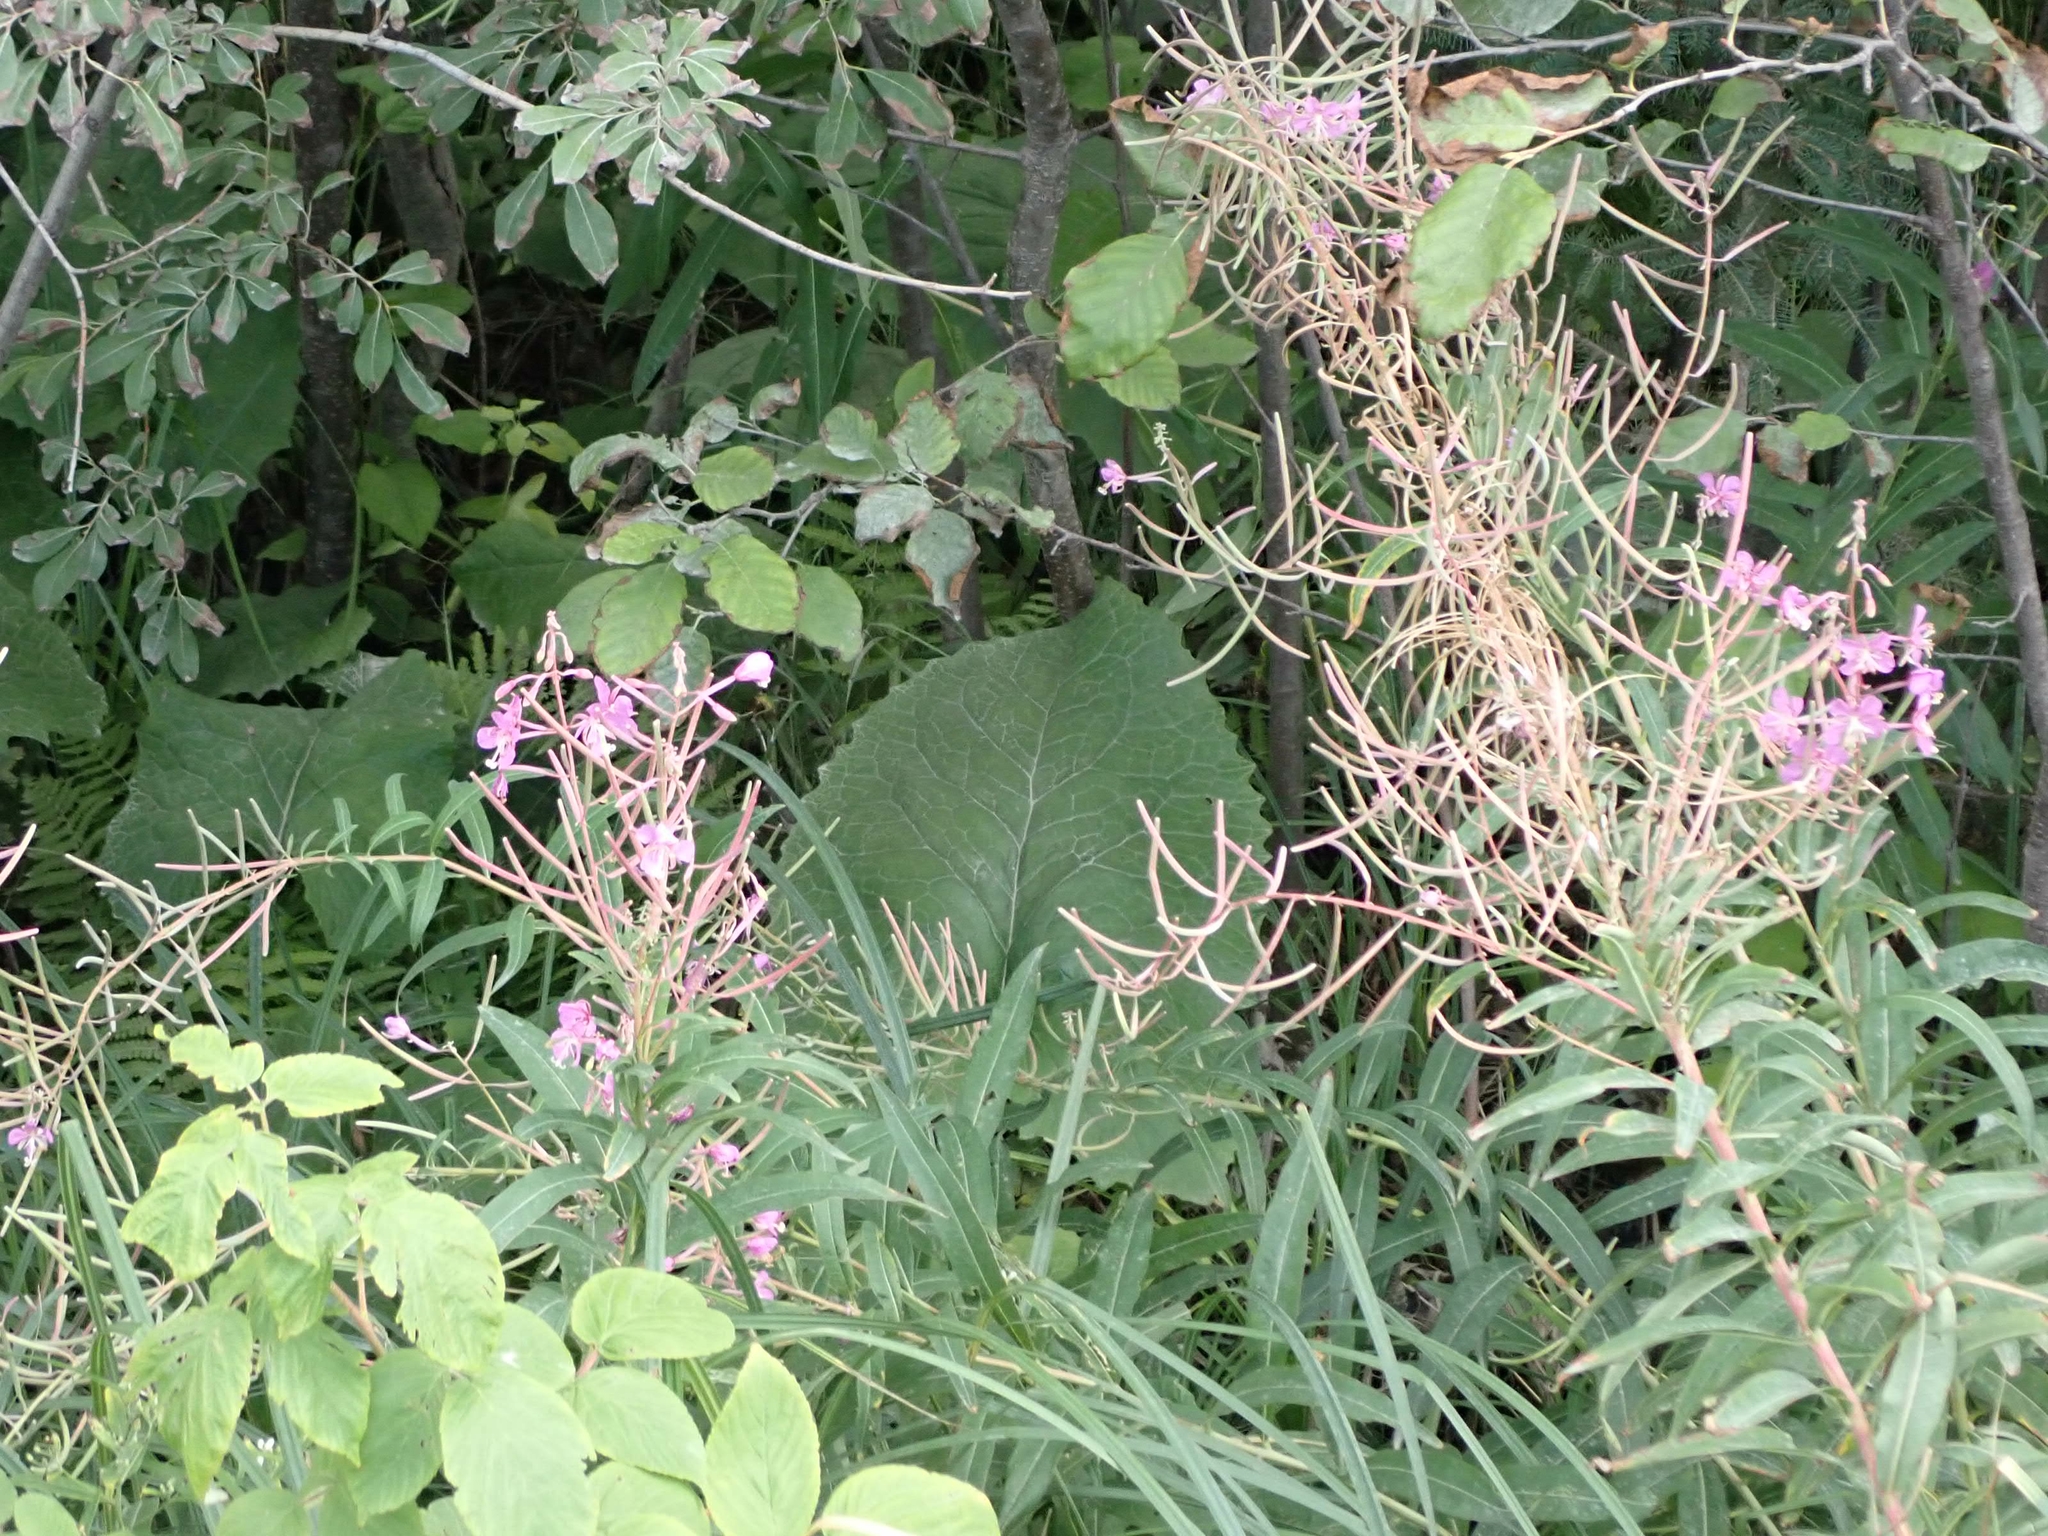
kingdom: Plantae
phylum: Tracheophyta
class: Magnoliopsida
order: Myrtales
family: Onagraceae
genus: Chamaenerion
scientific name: Chamaenerion angustifolium
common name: Fireweed
